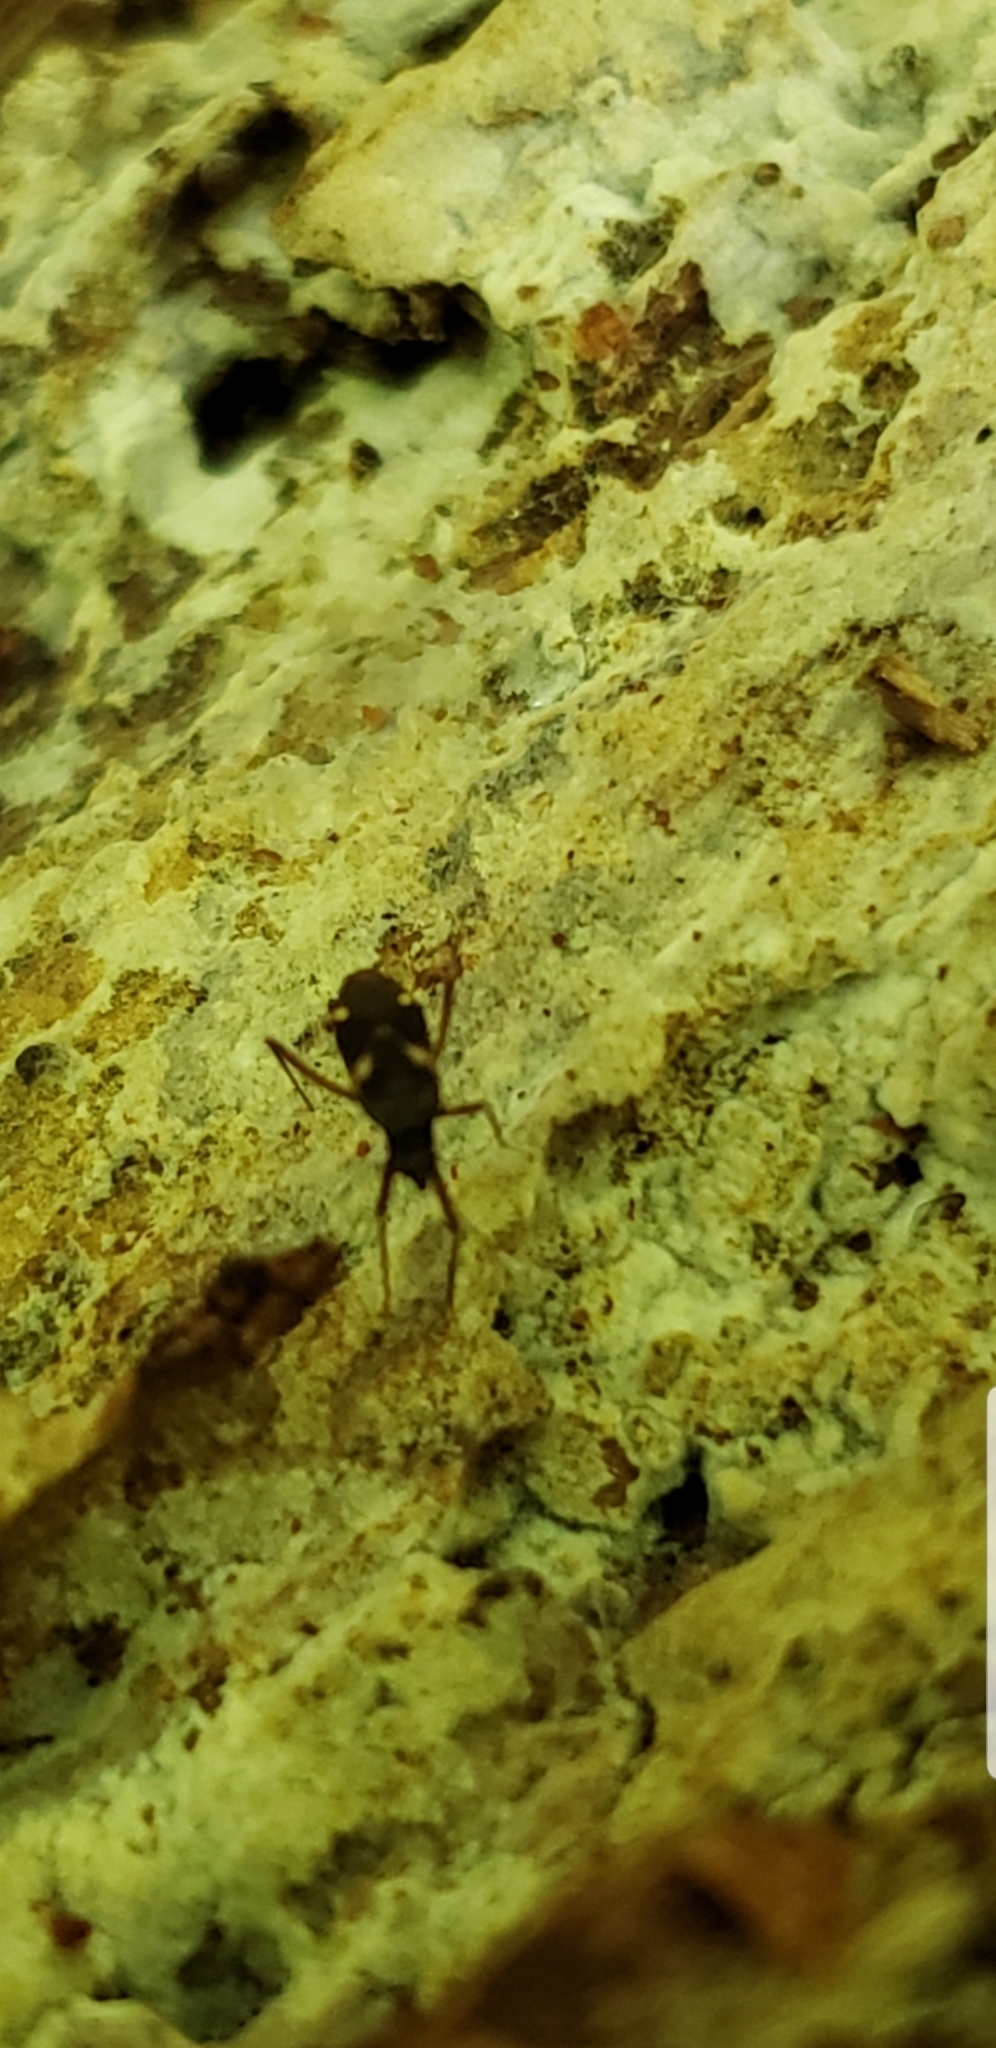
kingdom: Animalia
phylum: Arthropoda
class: Insecta
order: Hemiptera
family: Miridae
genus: Fulvius
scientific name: Fulvius imbecilis
